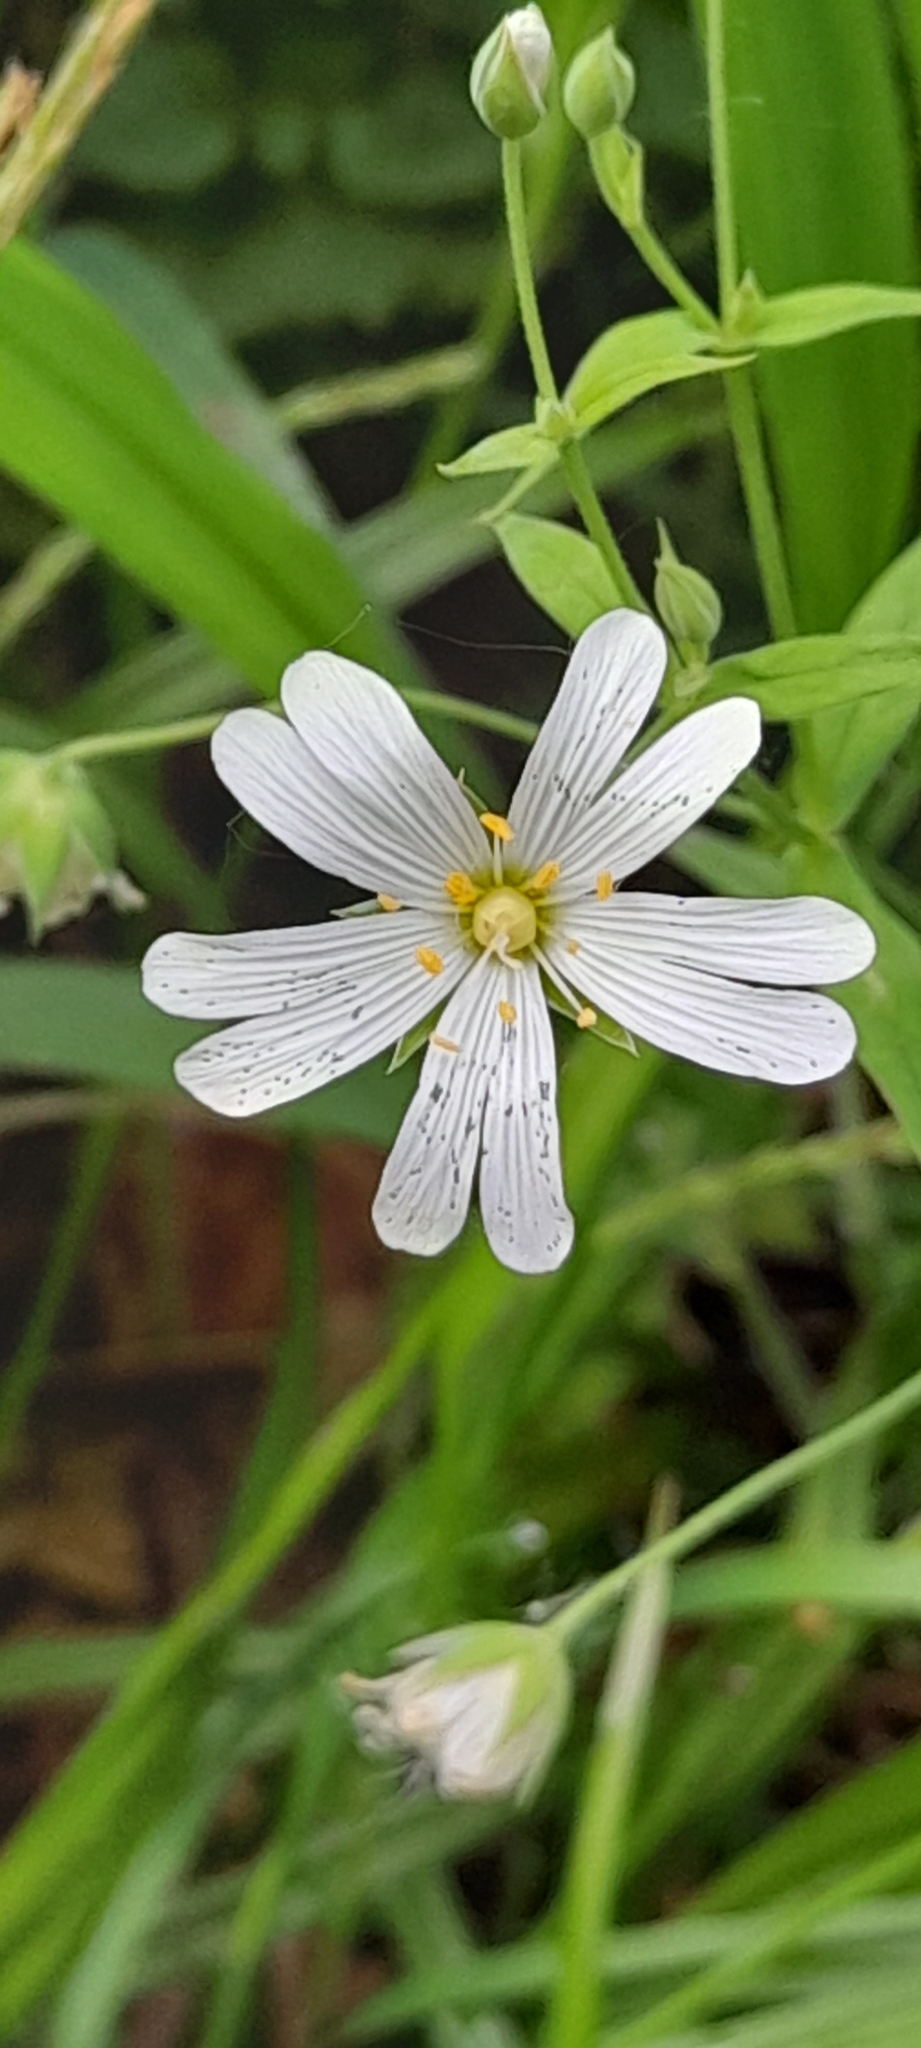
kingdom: Plantae
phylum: Tracheophyta
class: Magnoliopsida
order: Caryophyllales
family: Caryophyllaceae
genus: Rabelera
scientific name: Rabelera holostea
